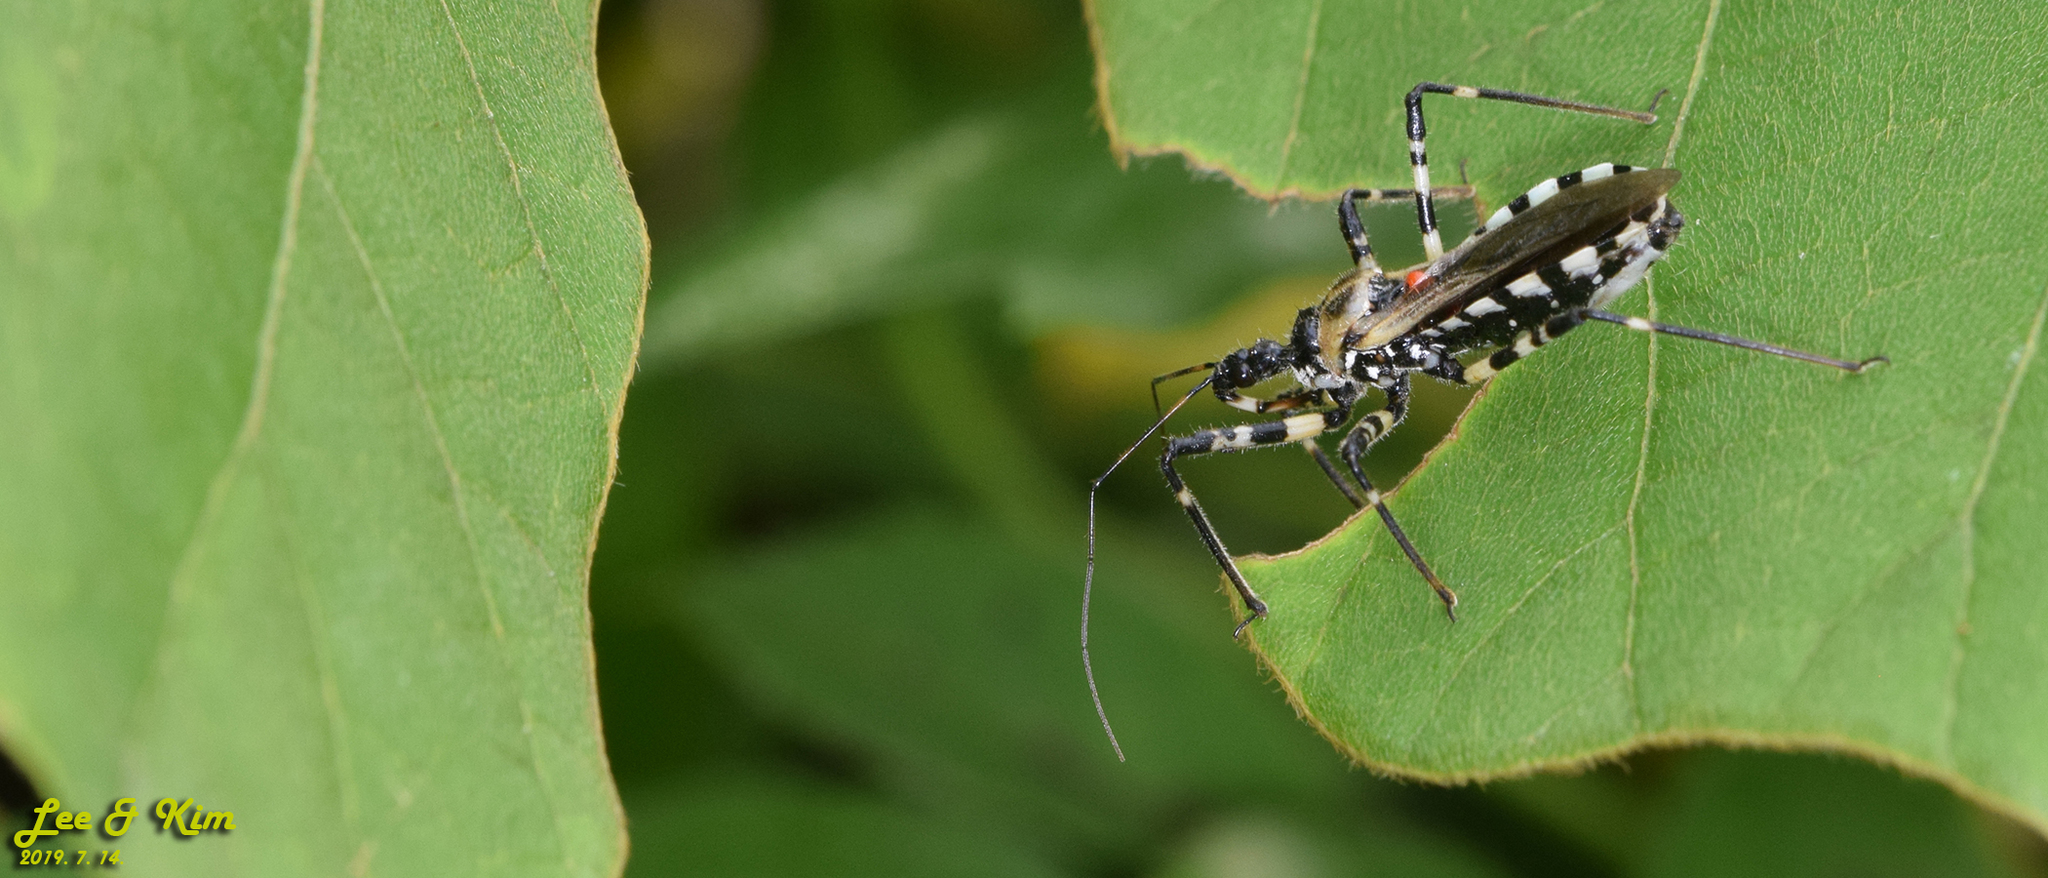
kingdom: Animalia
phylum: Arthropoda
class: Insecta
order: Hemiptera
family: Reduviidae
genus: Sphedanolestes
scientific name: Sphedanolestes impressicollis
